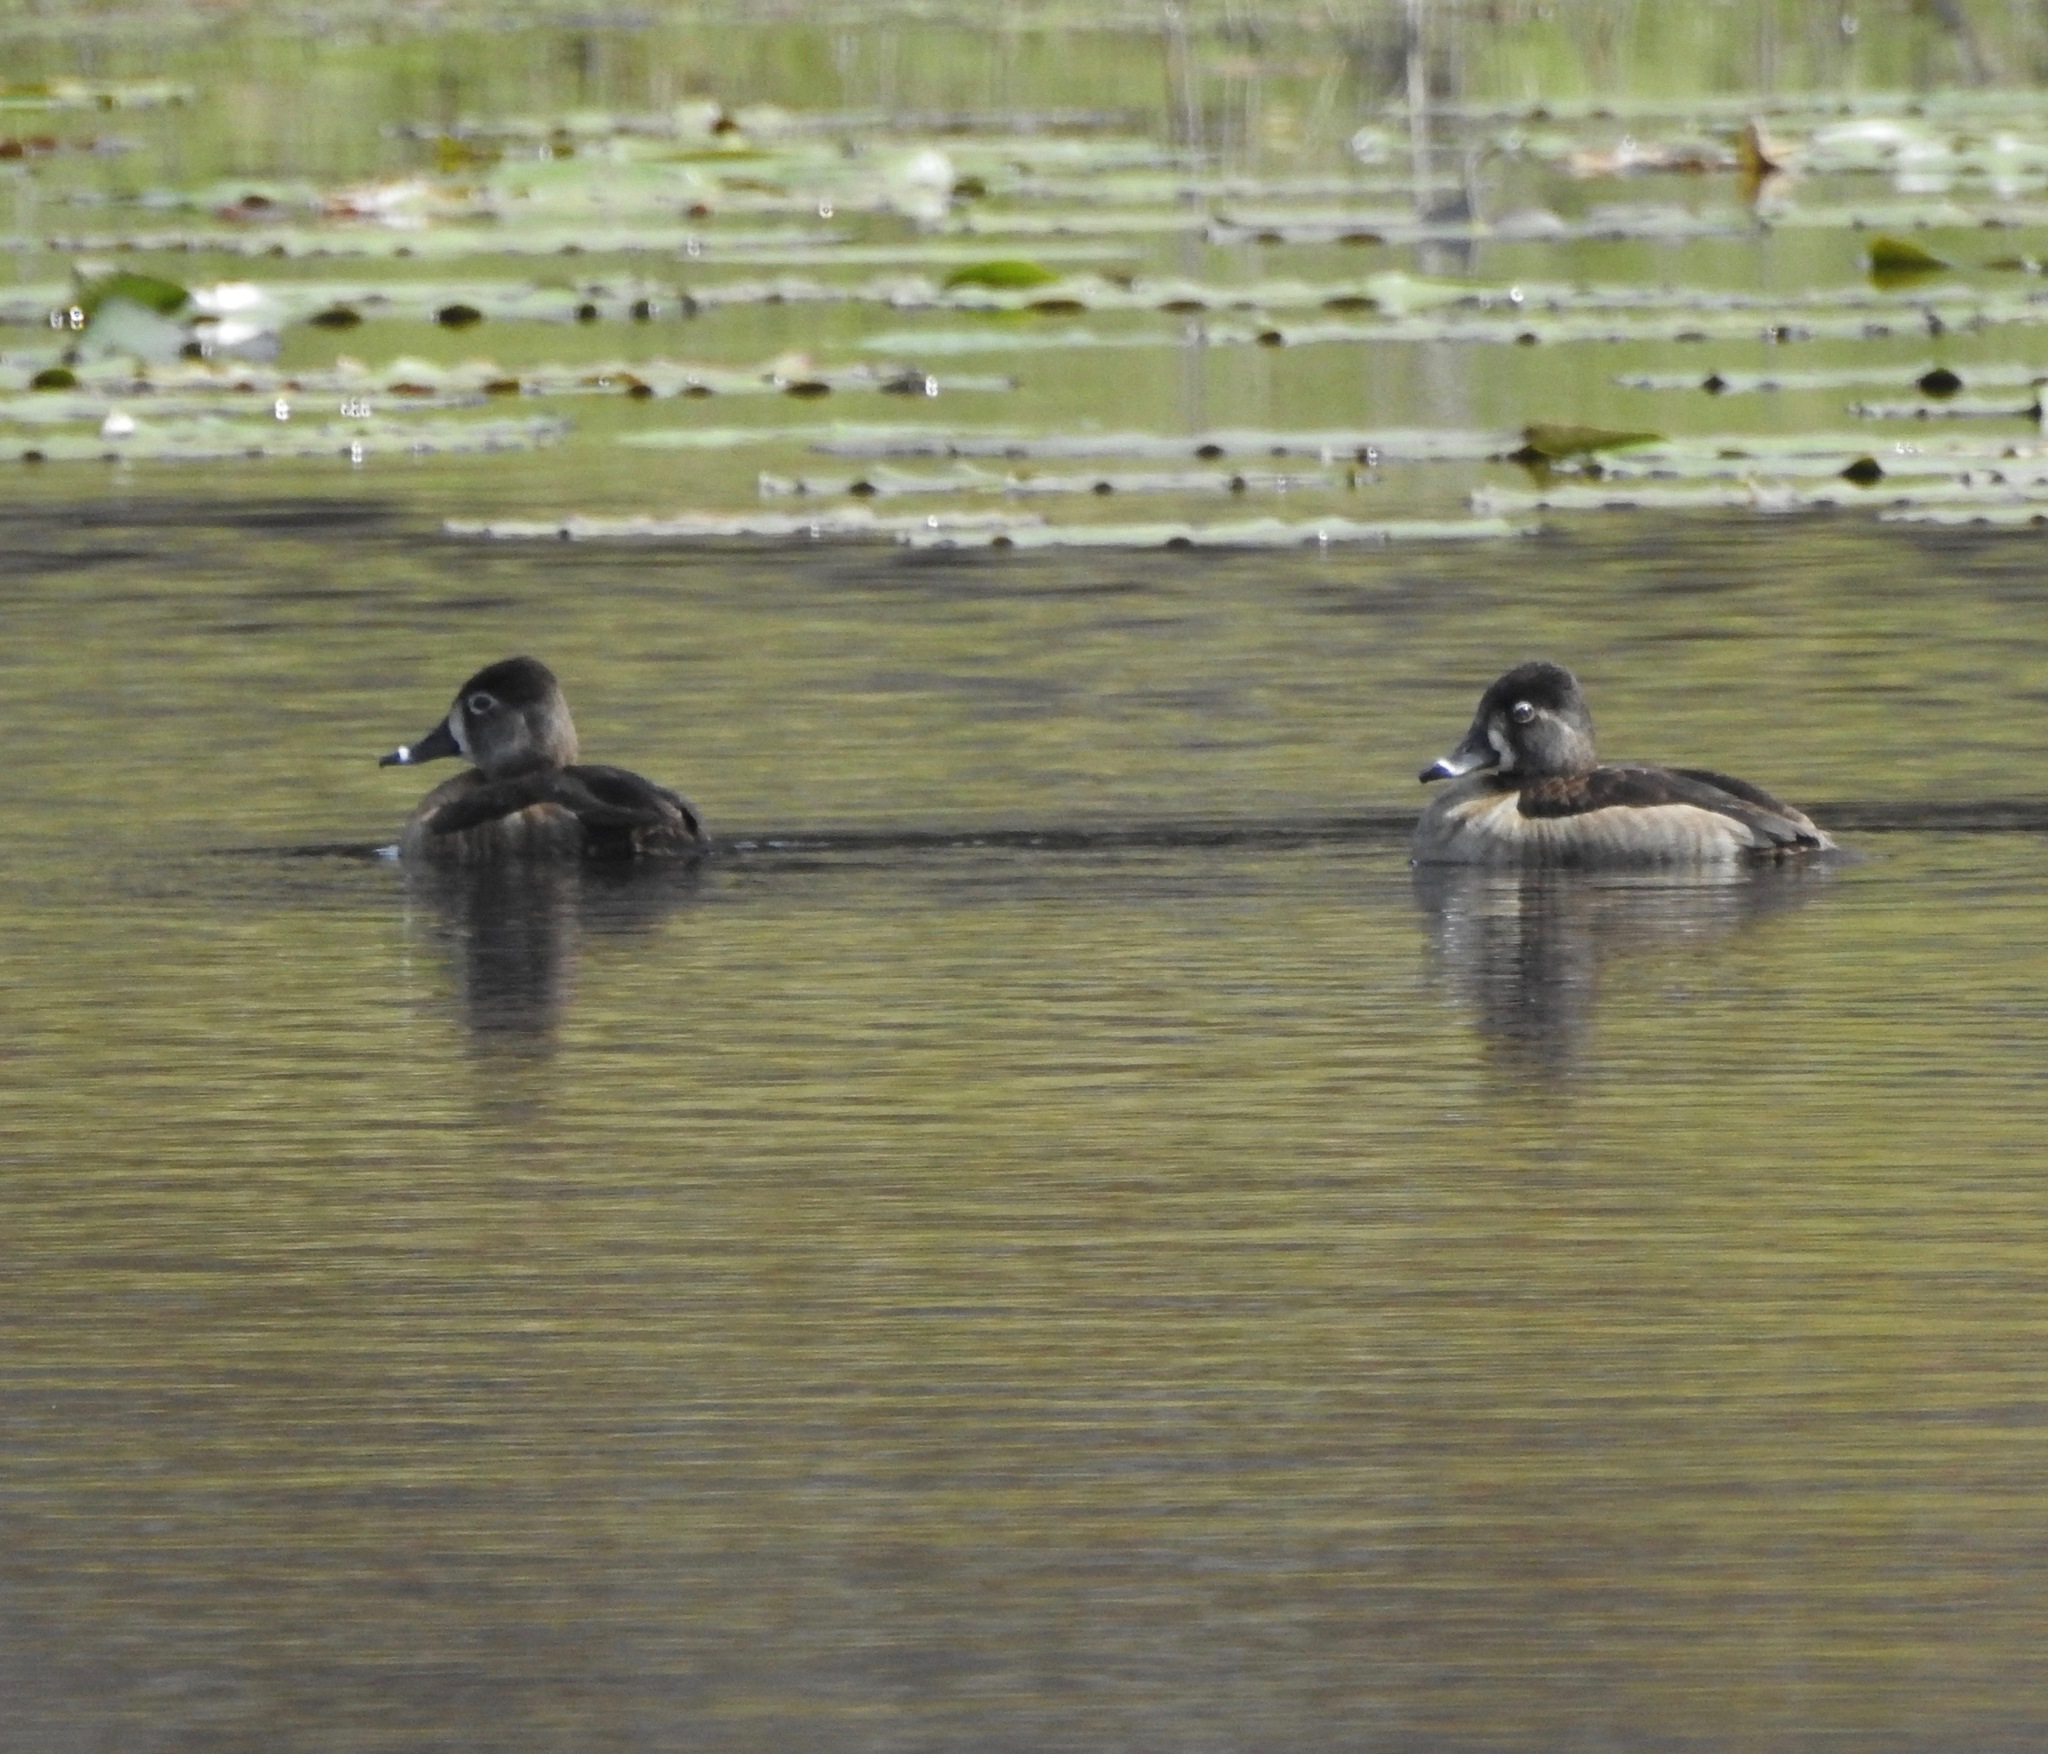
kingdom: Animalia
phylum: Chordata
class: Aves
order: Anseriformes
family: Anatidae
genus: Aythya
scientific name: Aythya collaris
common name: Ring-necked duck
